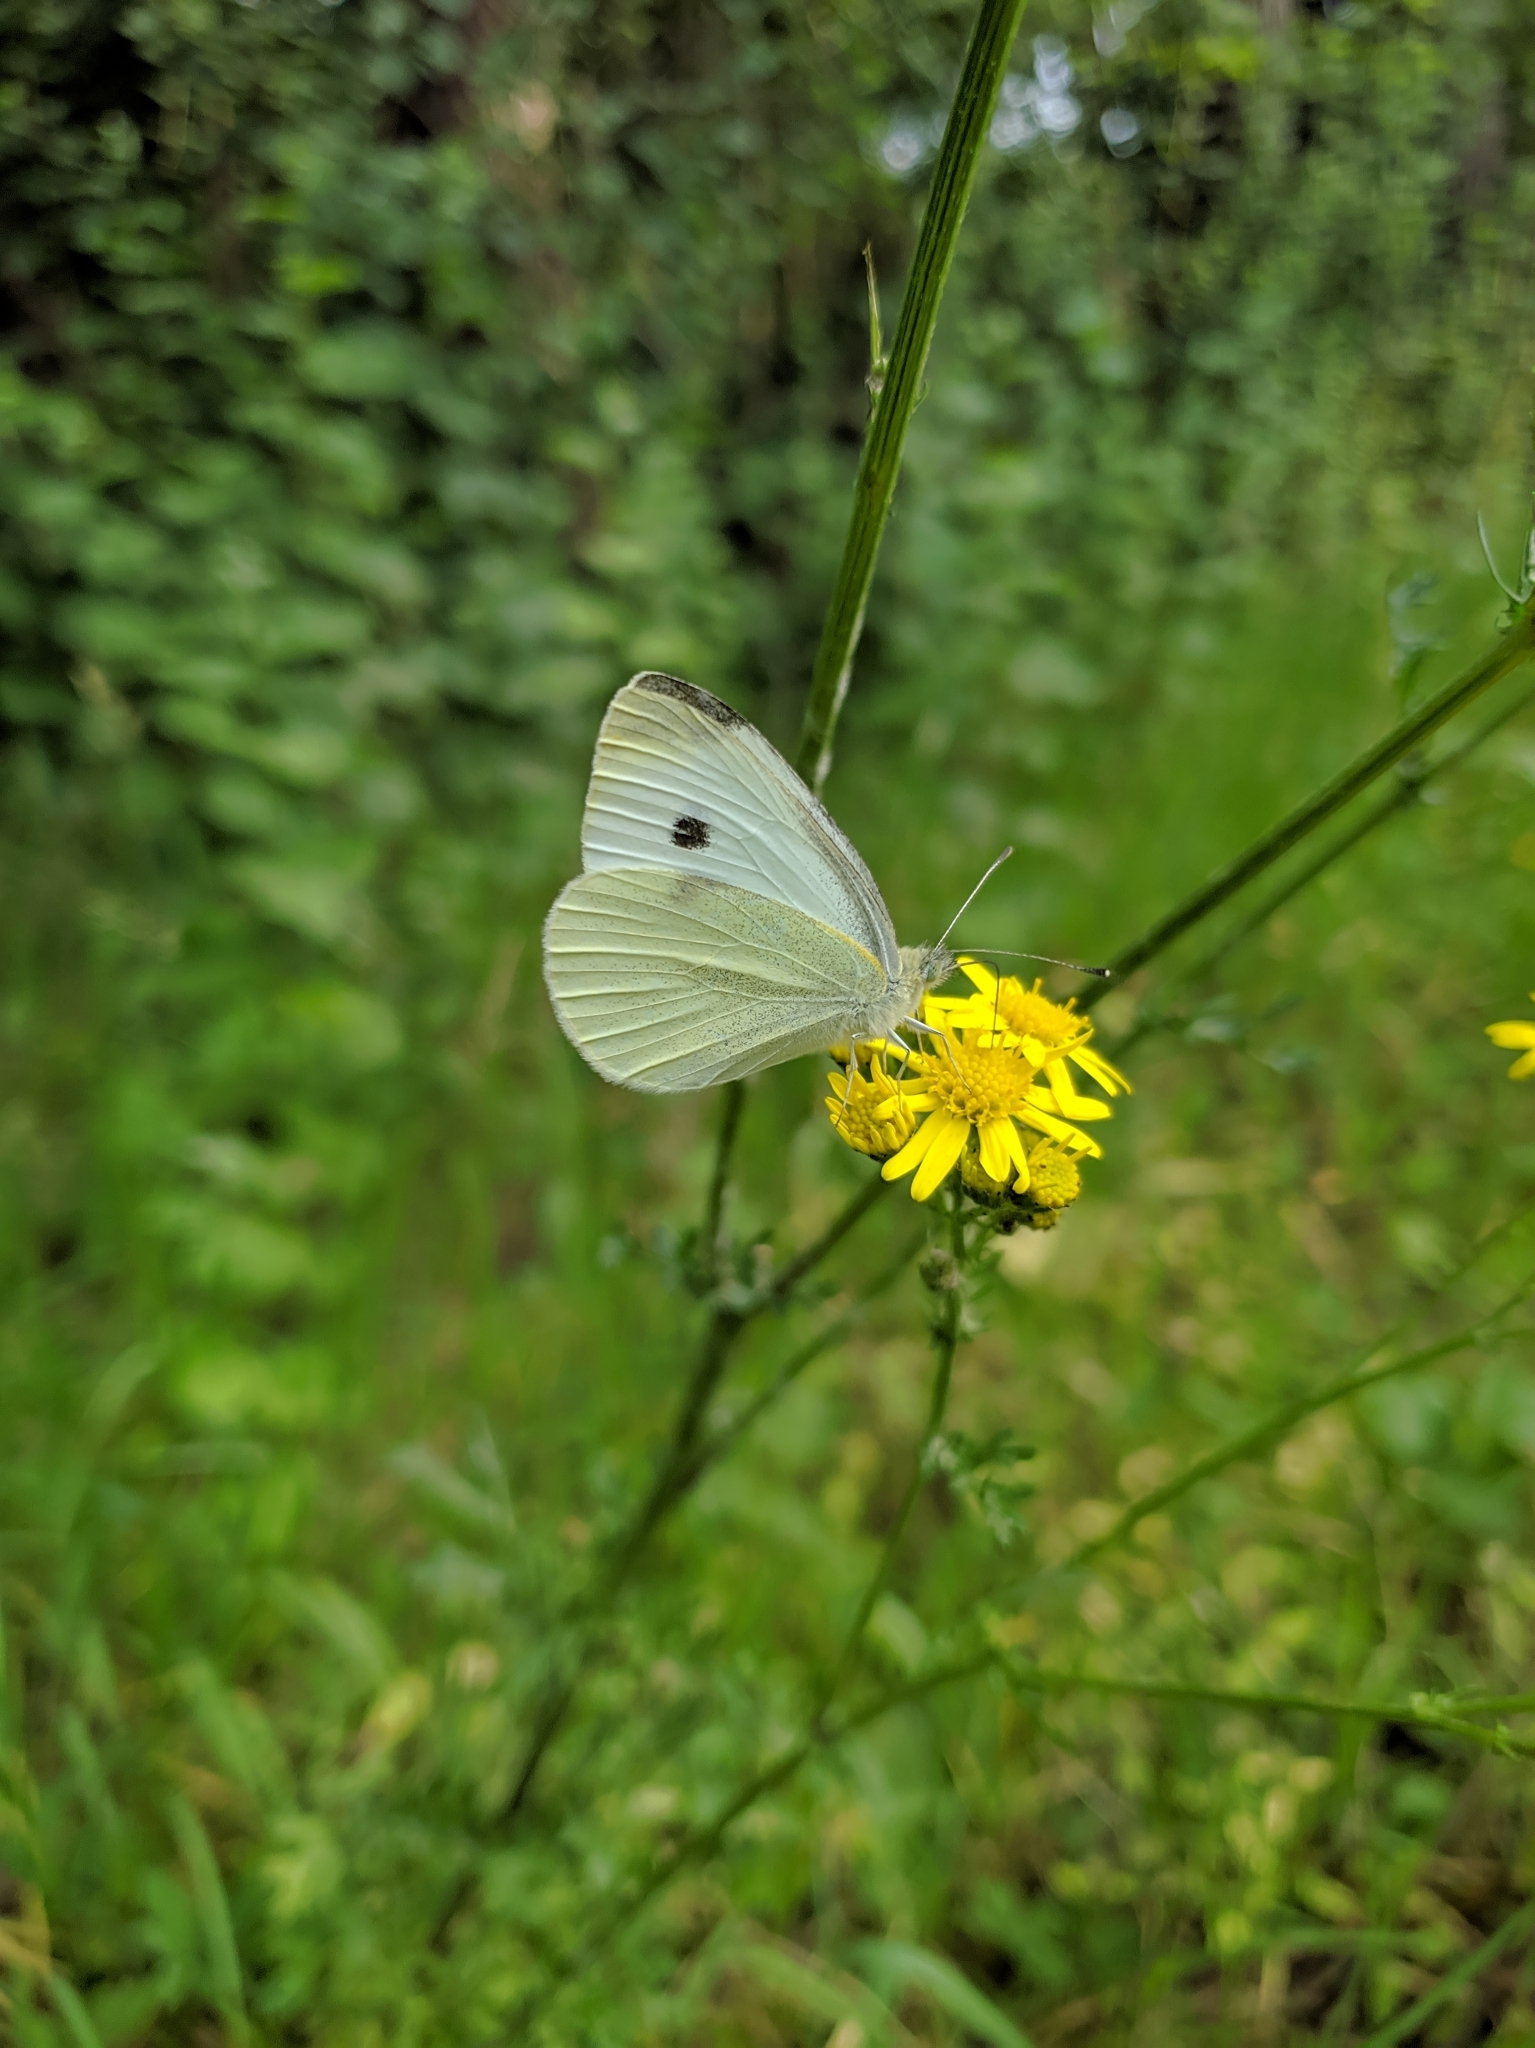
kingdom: Animalia
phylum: Arthropoda
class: Insecta
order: Lepidoptera
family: Pieridae
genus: Pieris
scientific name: Pieris rapae
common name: Small white
